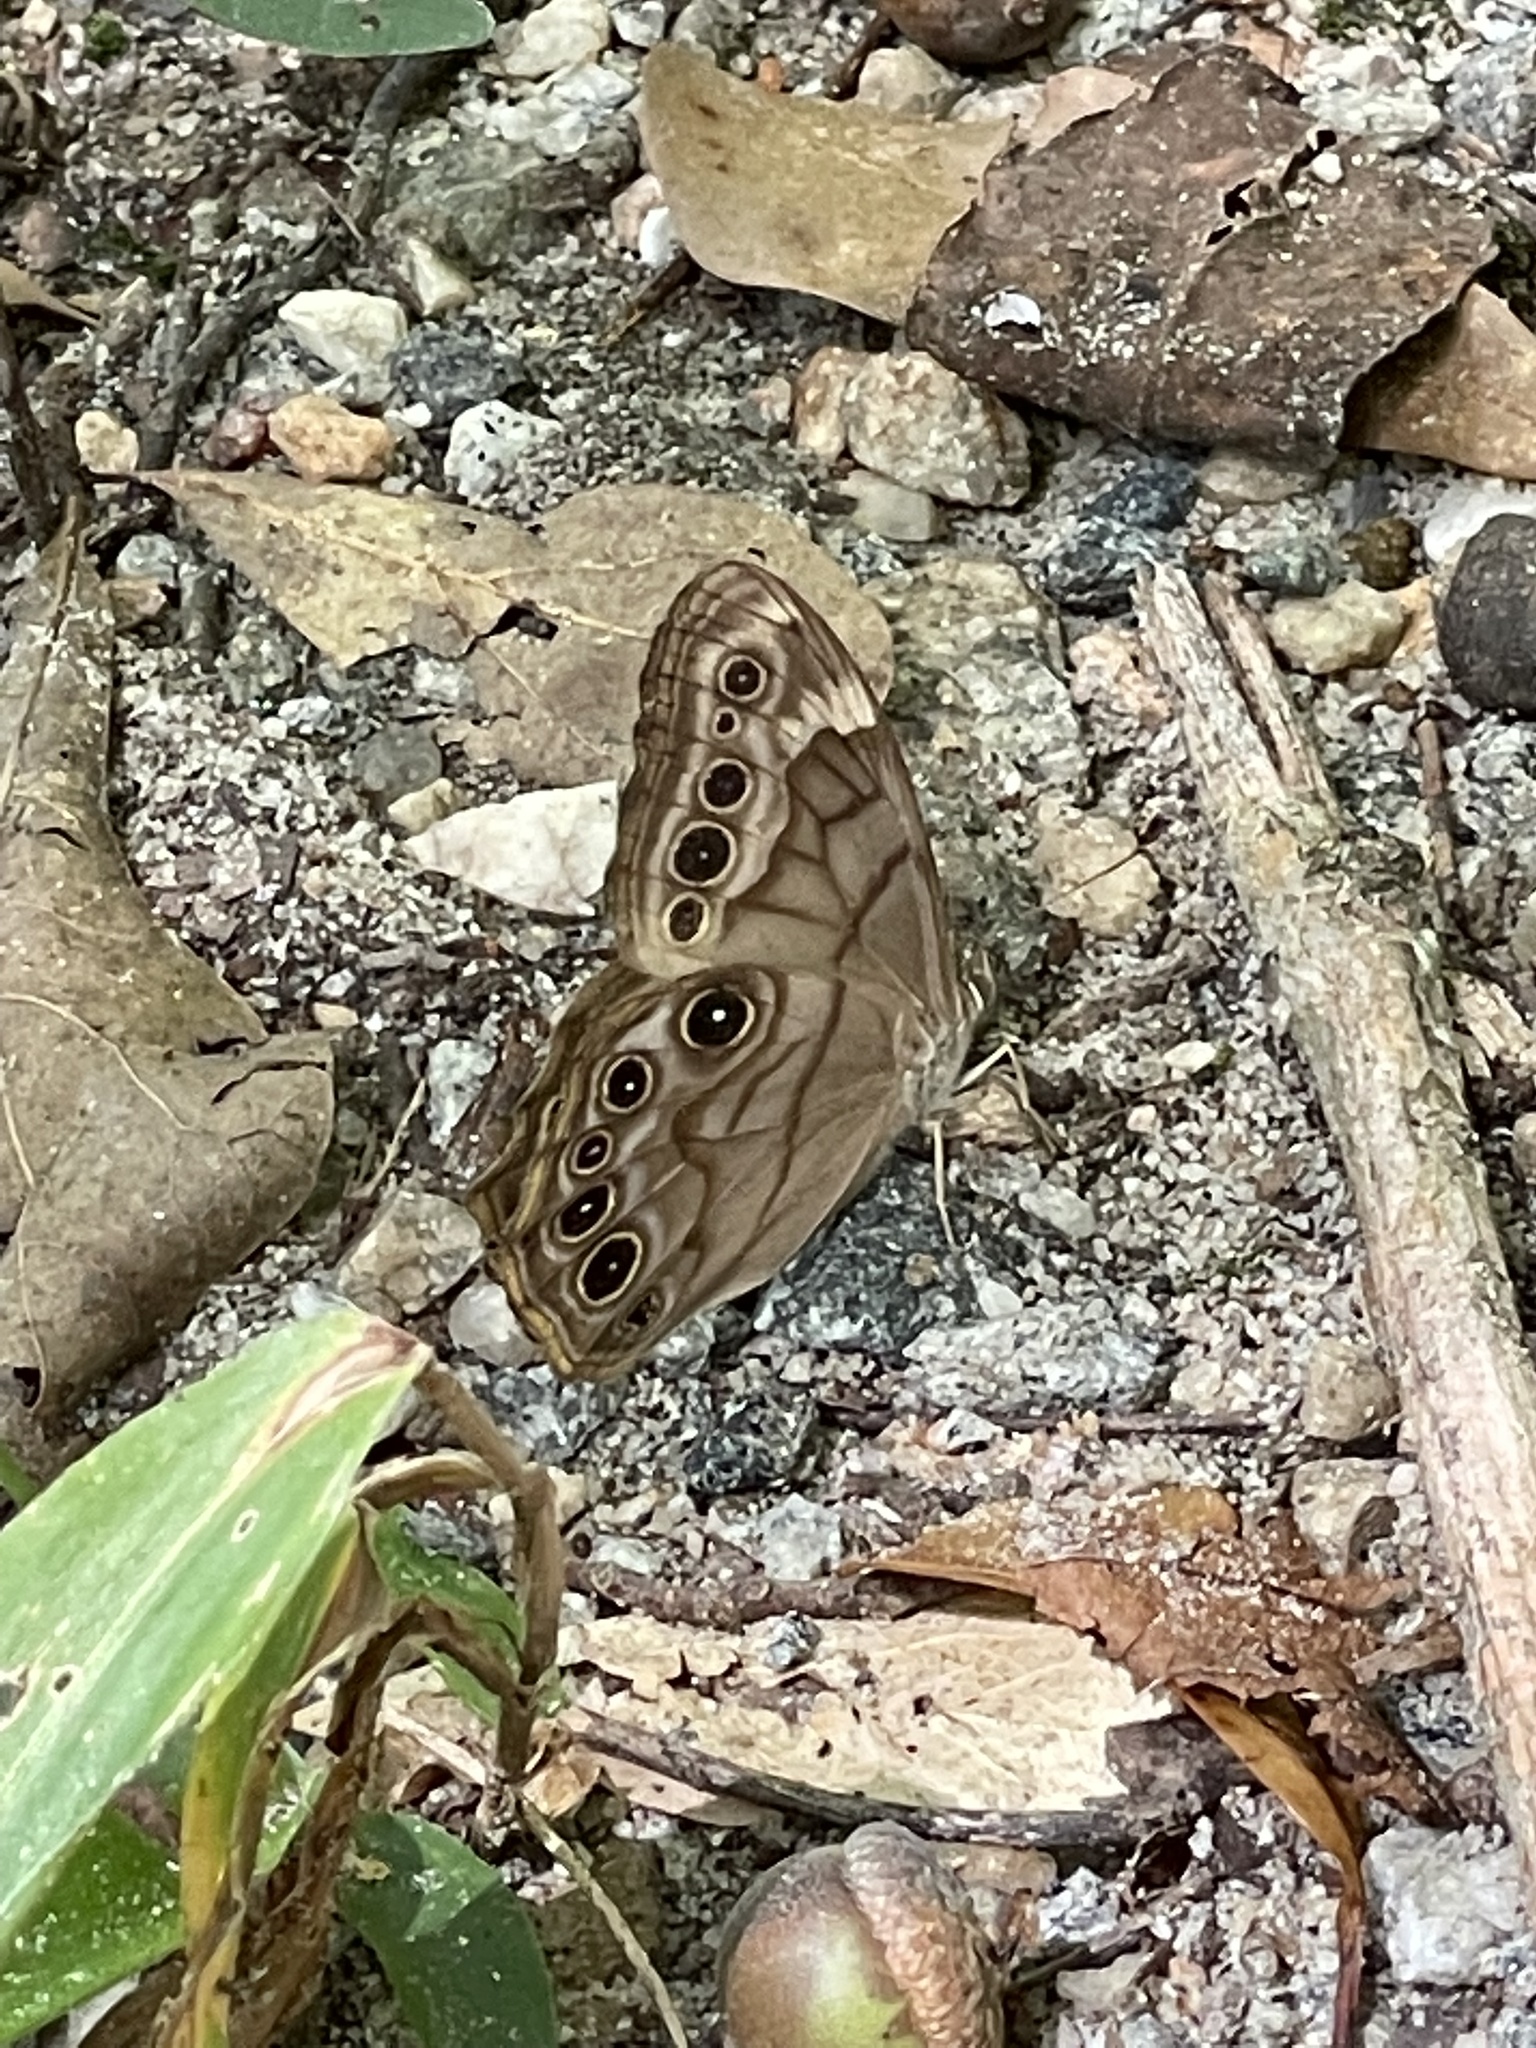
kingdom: Animalia
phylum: Arthropoda
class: Insecta
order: Lepidoptera
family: Nymphalidae
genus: Lethe
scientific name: Lethe creola
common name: Creole pearly-eye
